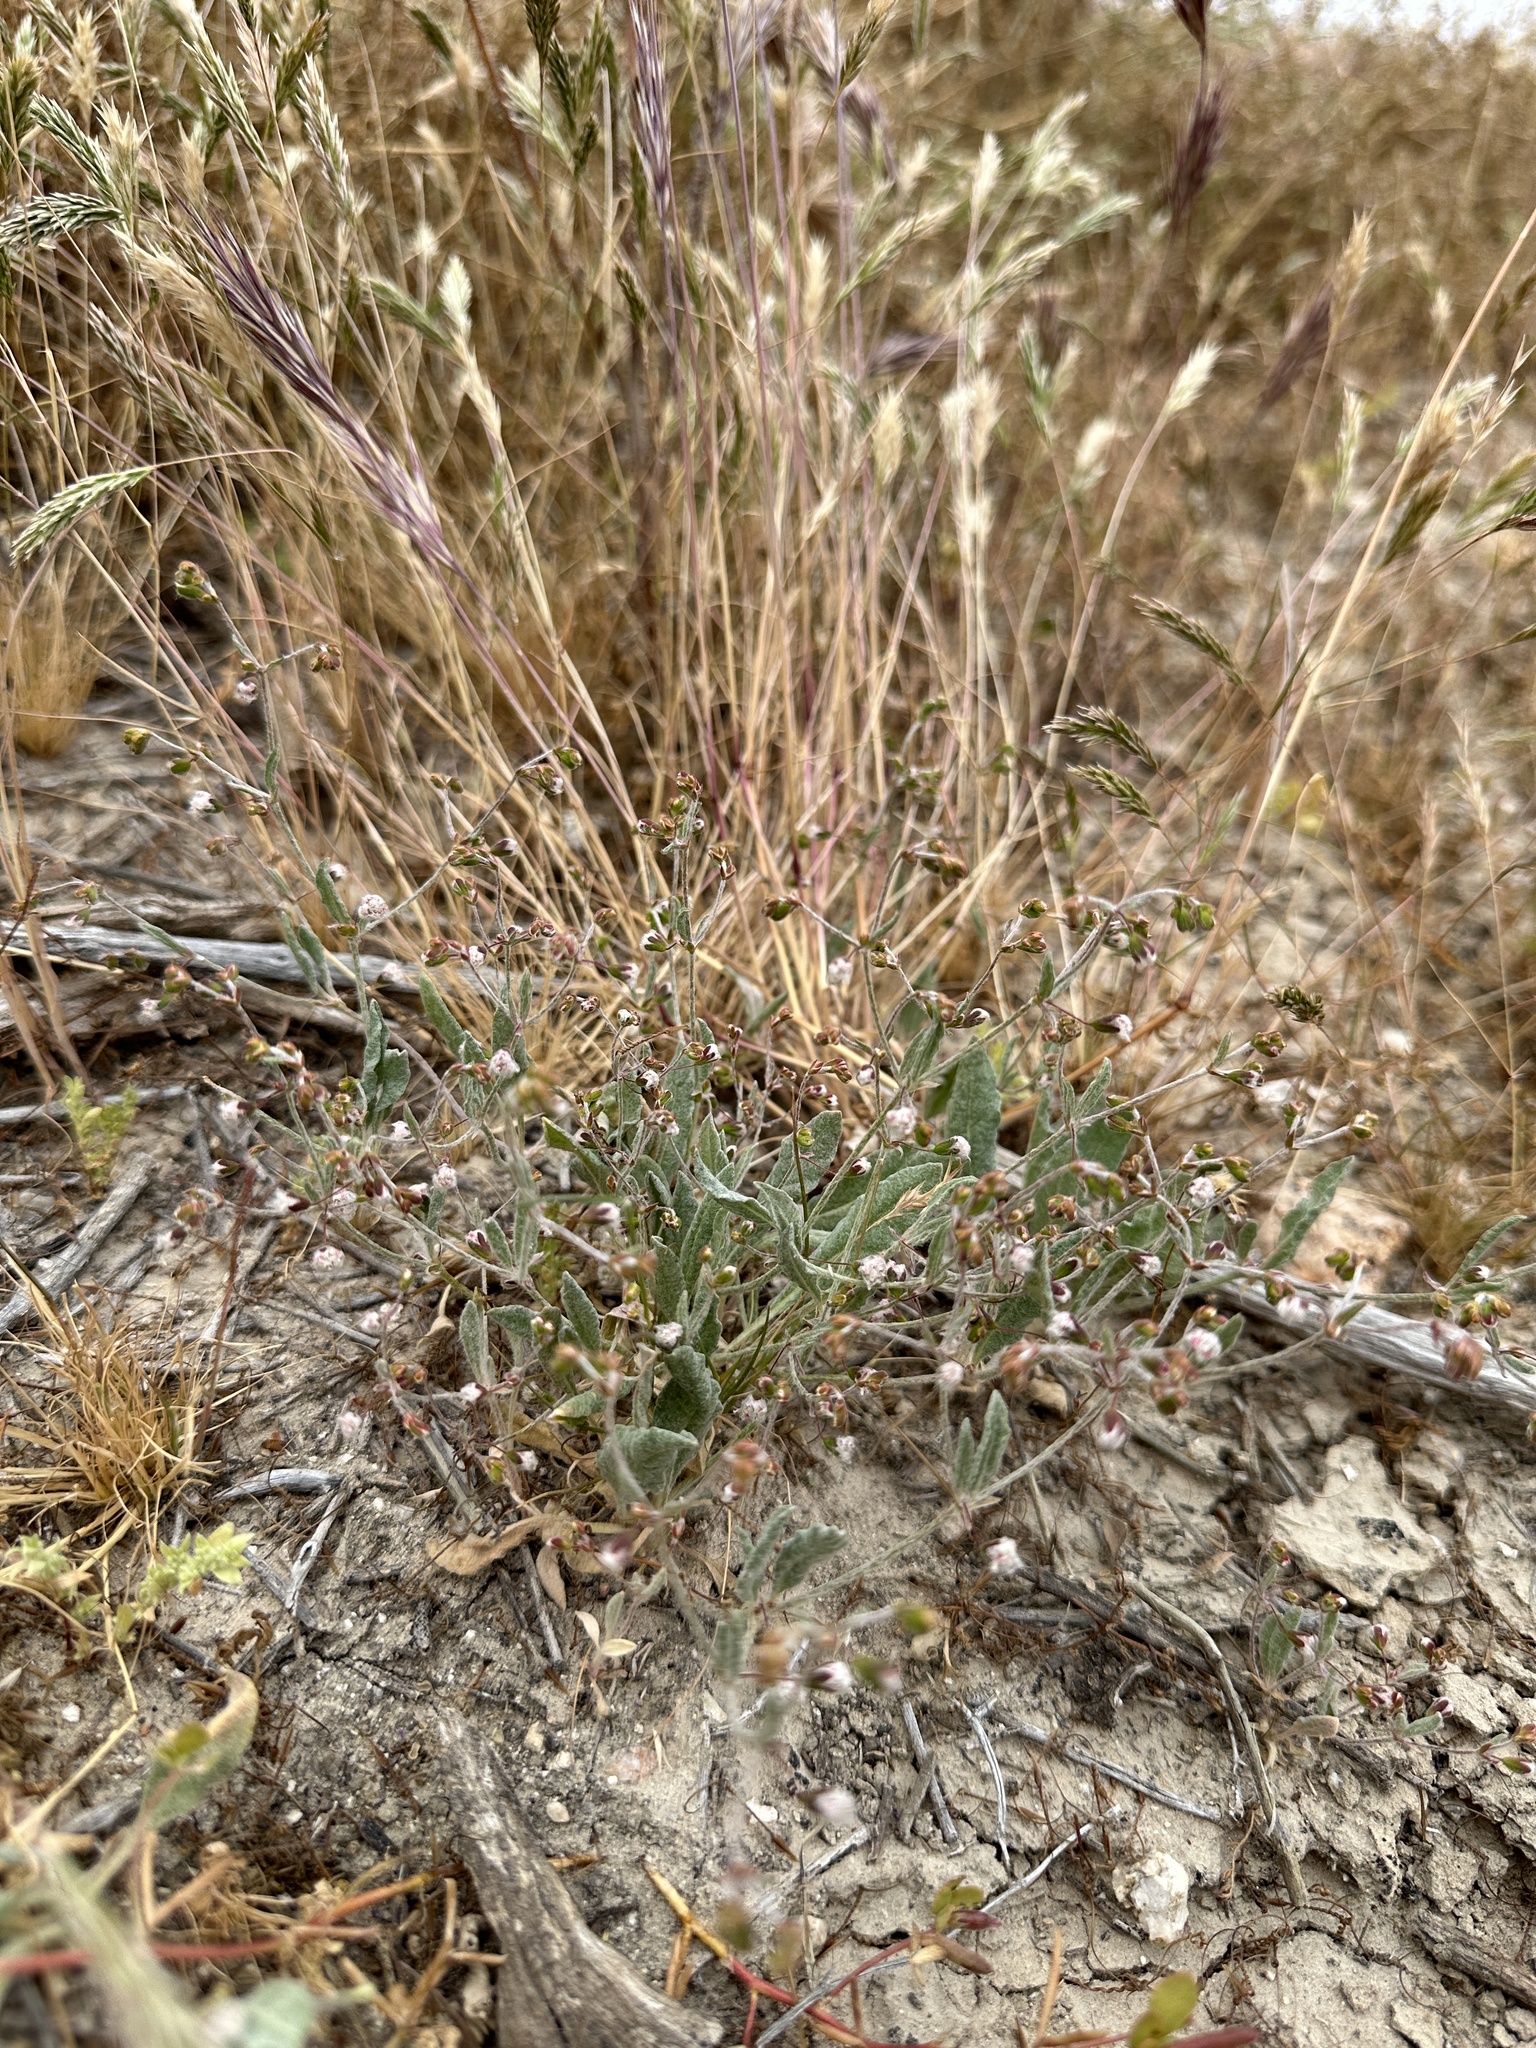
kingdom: Plantae
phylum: Tracheophyta
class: Magnoliopsida
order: Caryophyllales
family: Polygonaceae
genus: Eriogonum
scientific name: Eriogonum gossypinum
